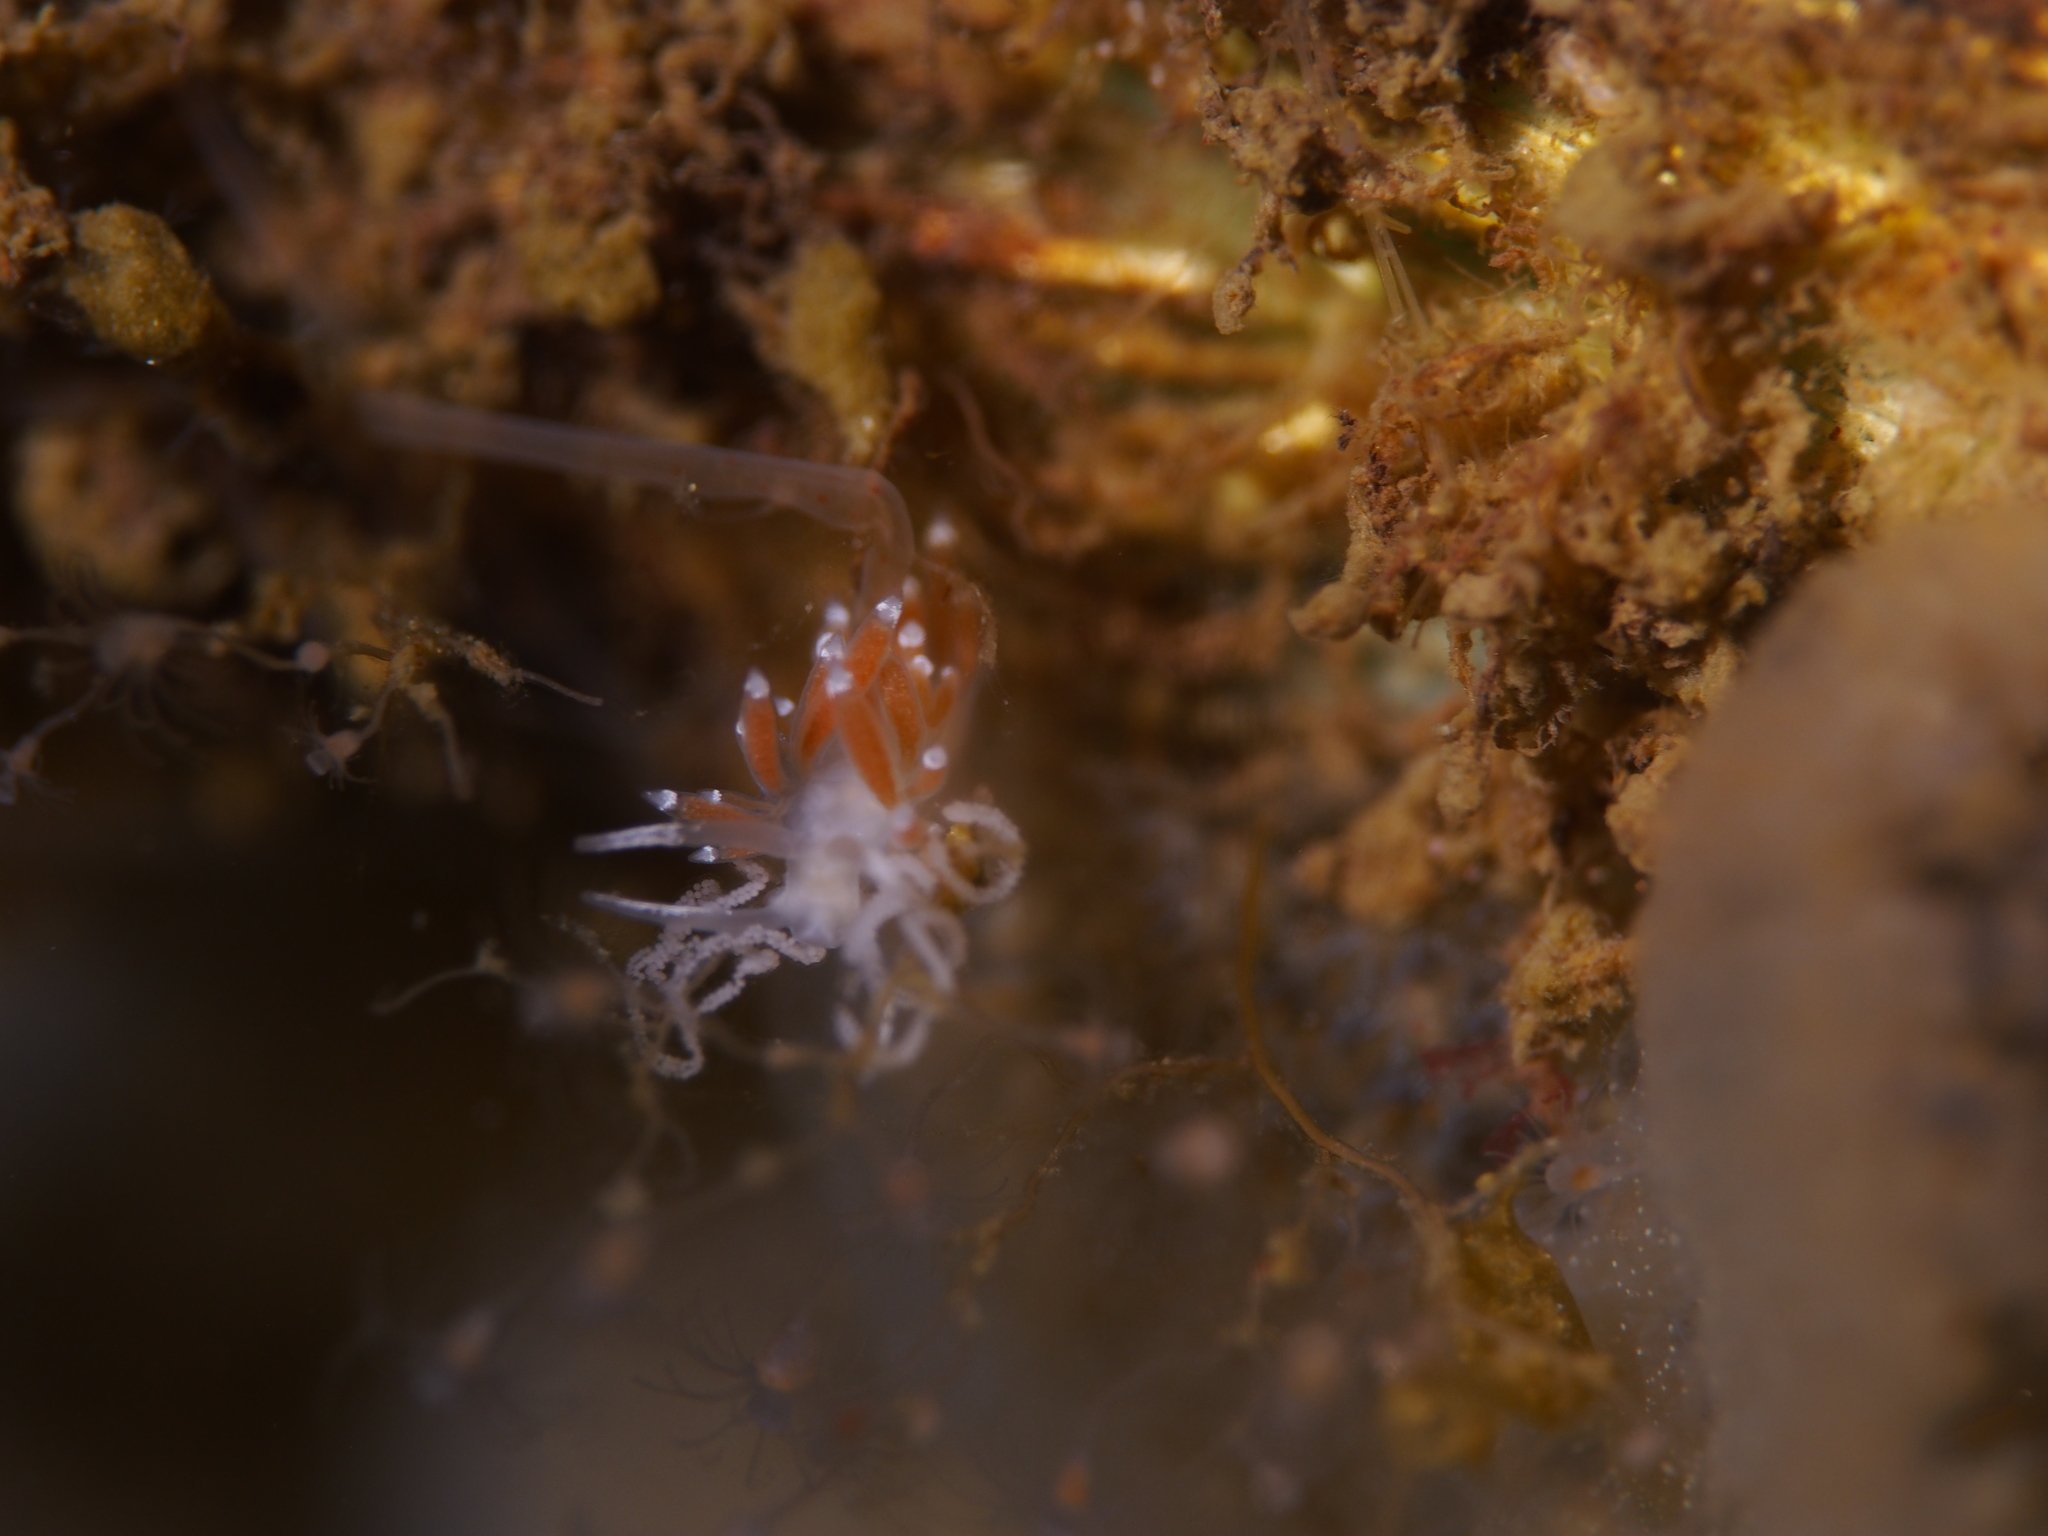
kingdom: Animalia
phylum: Mollusca
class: Gastropoda
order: Nudibranchia
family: Coryphellidae
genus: Coryphella
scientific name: Coryphella gracilis
